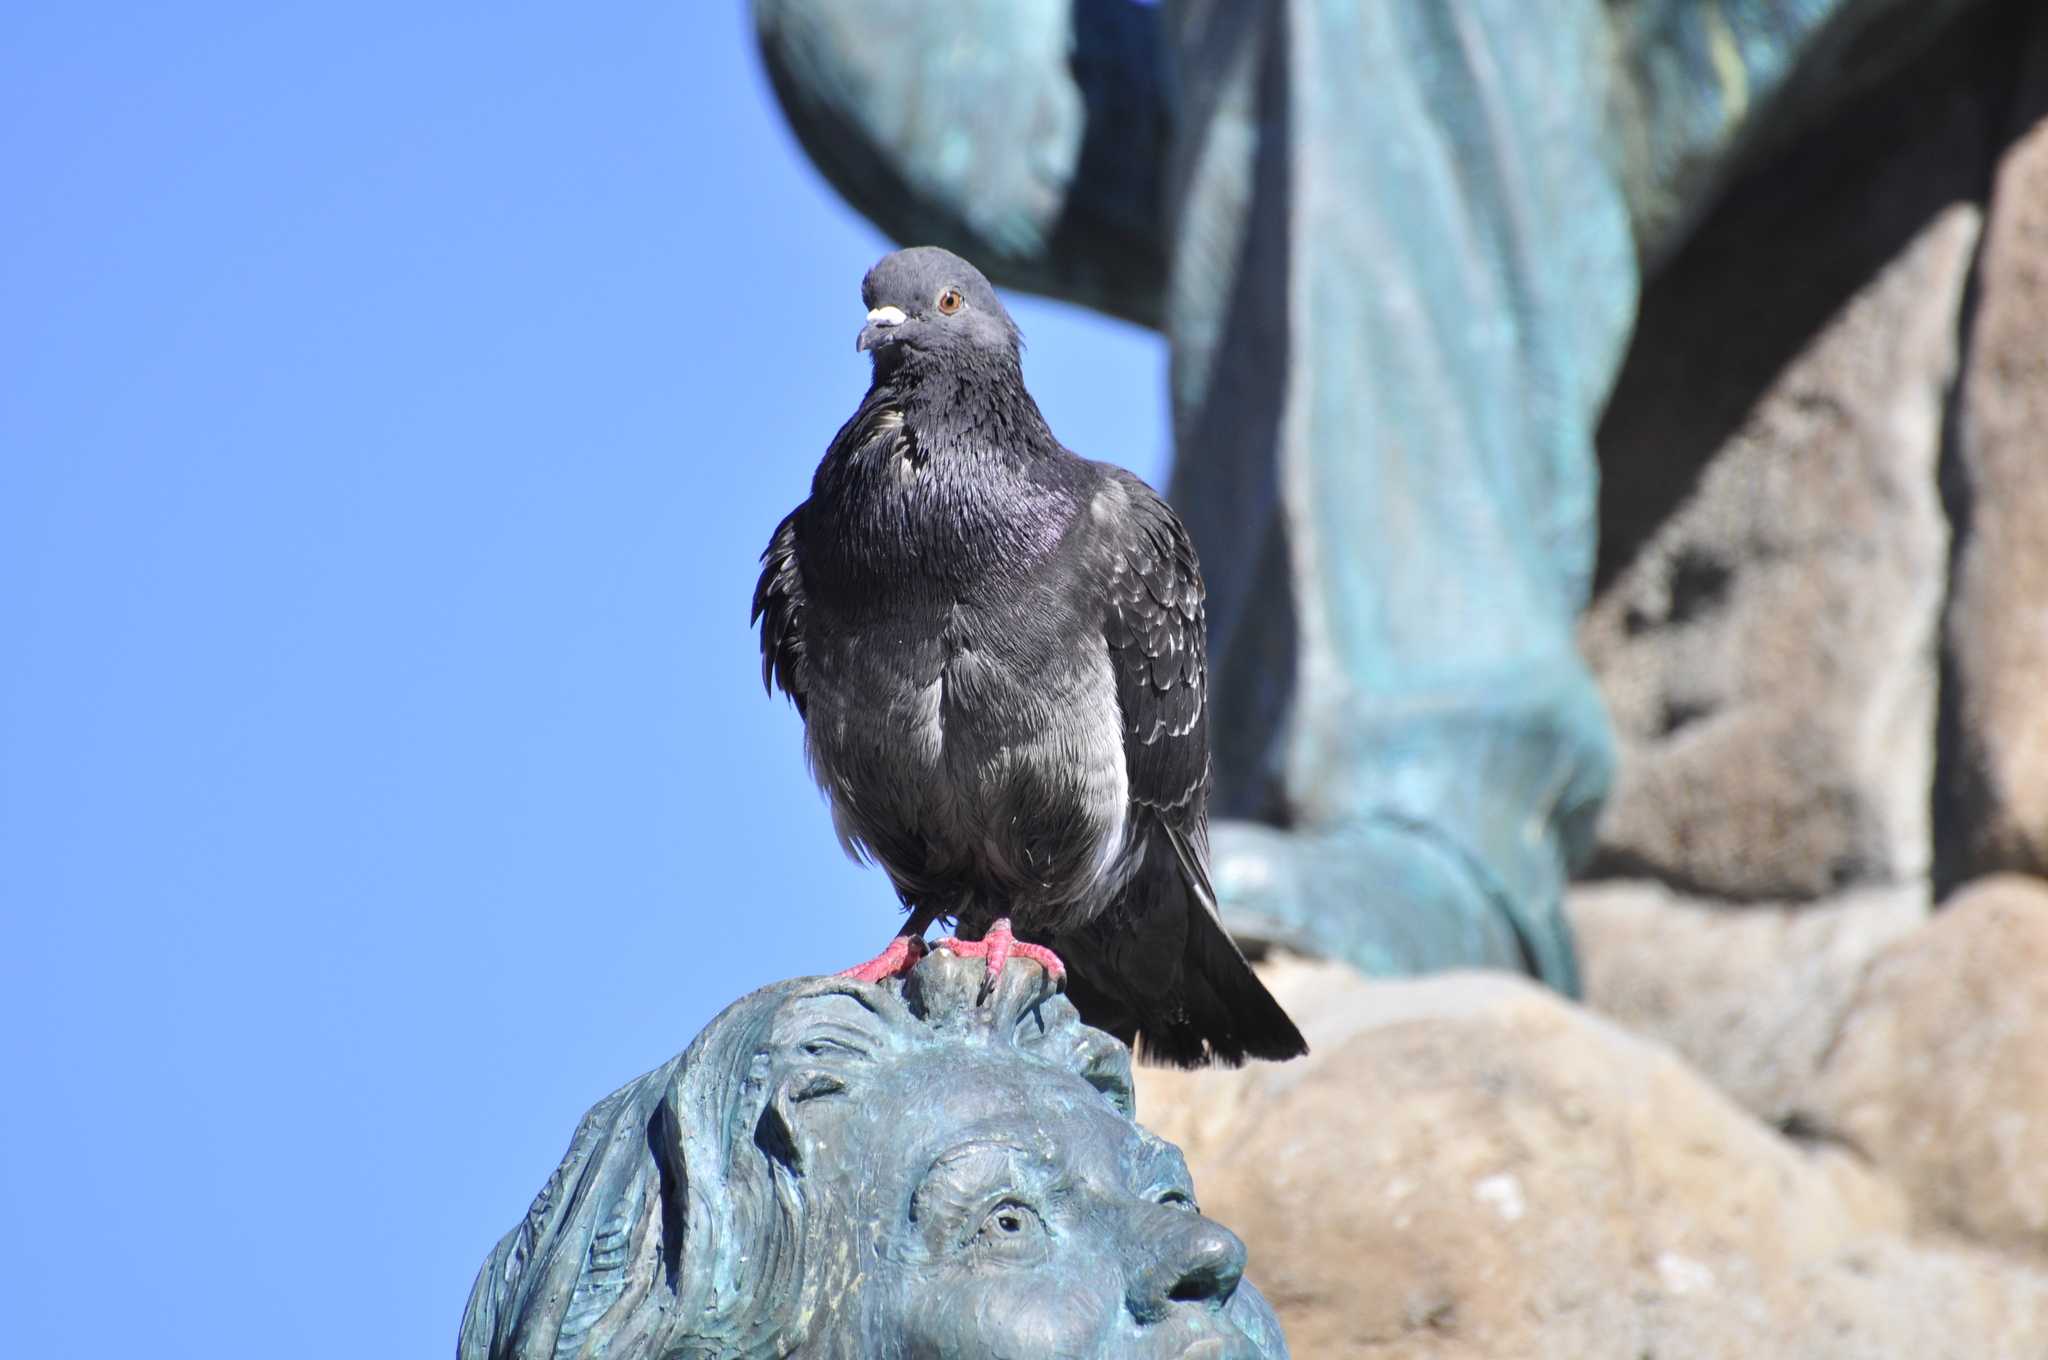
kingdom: Animalia
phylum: Chordata
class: Aves
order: Columbiformes
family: Columbidae
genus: Columba
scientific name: Columba livia
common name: Rock pigeon
